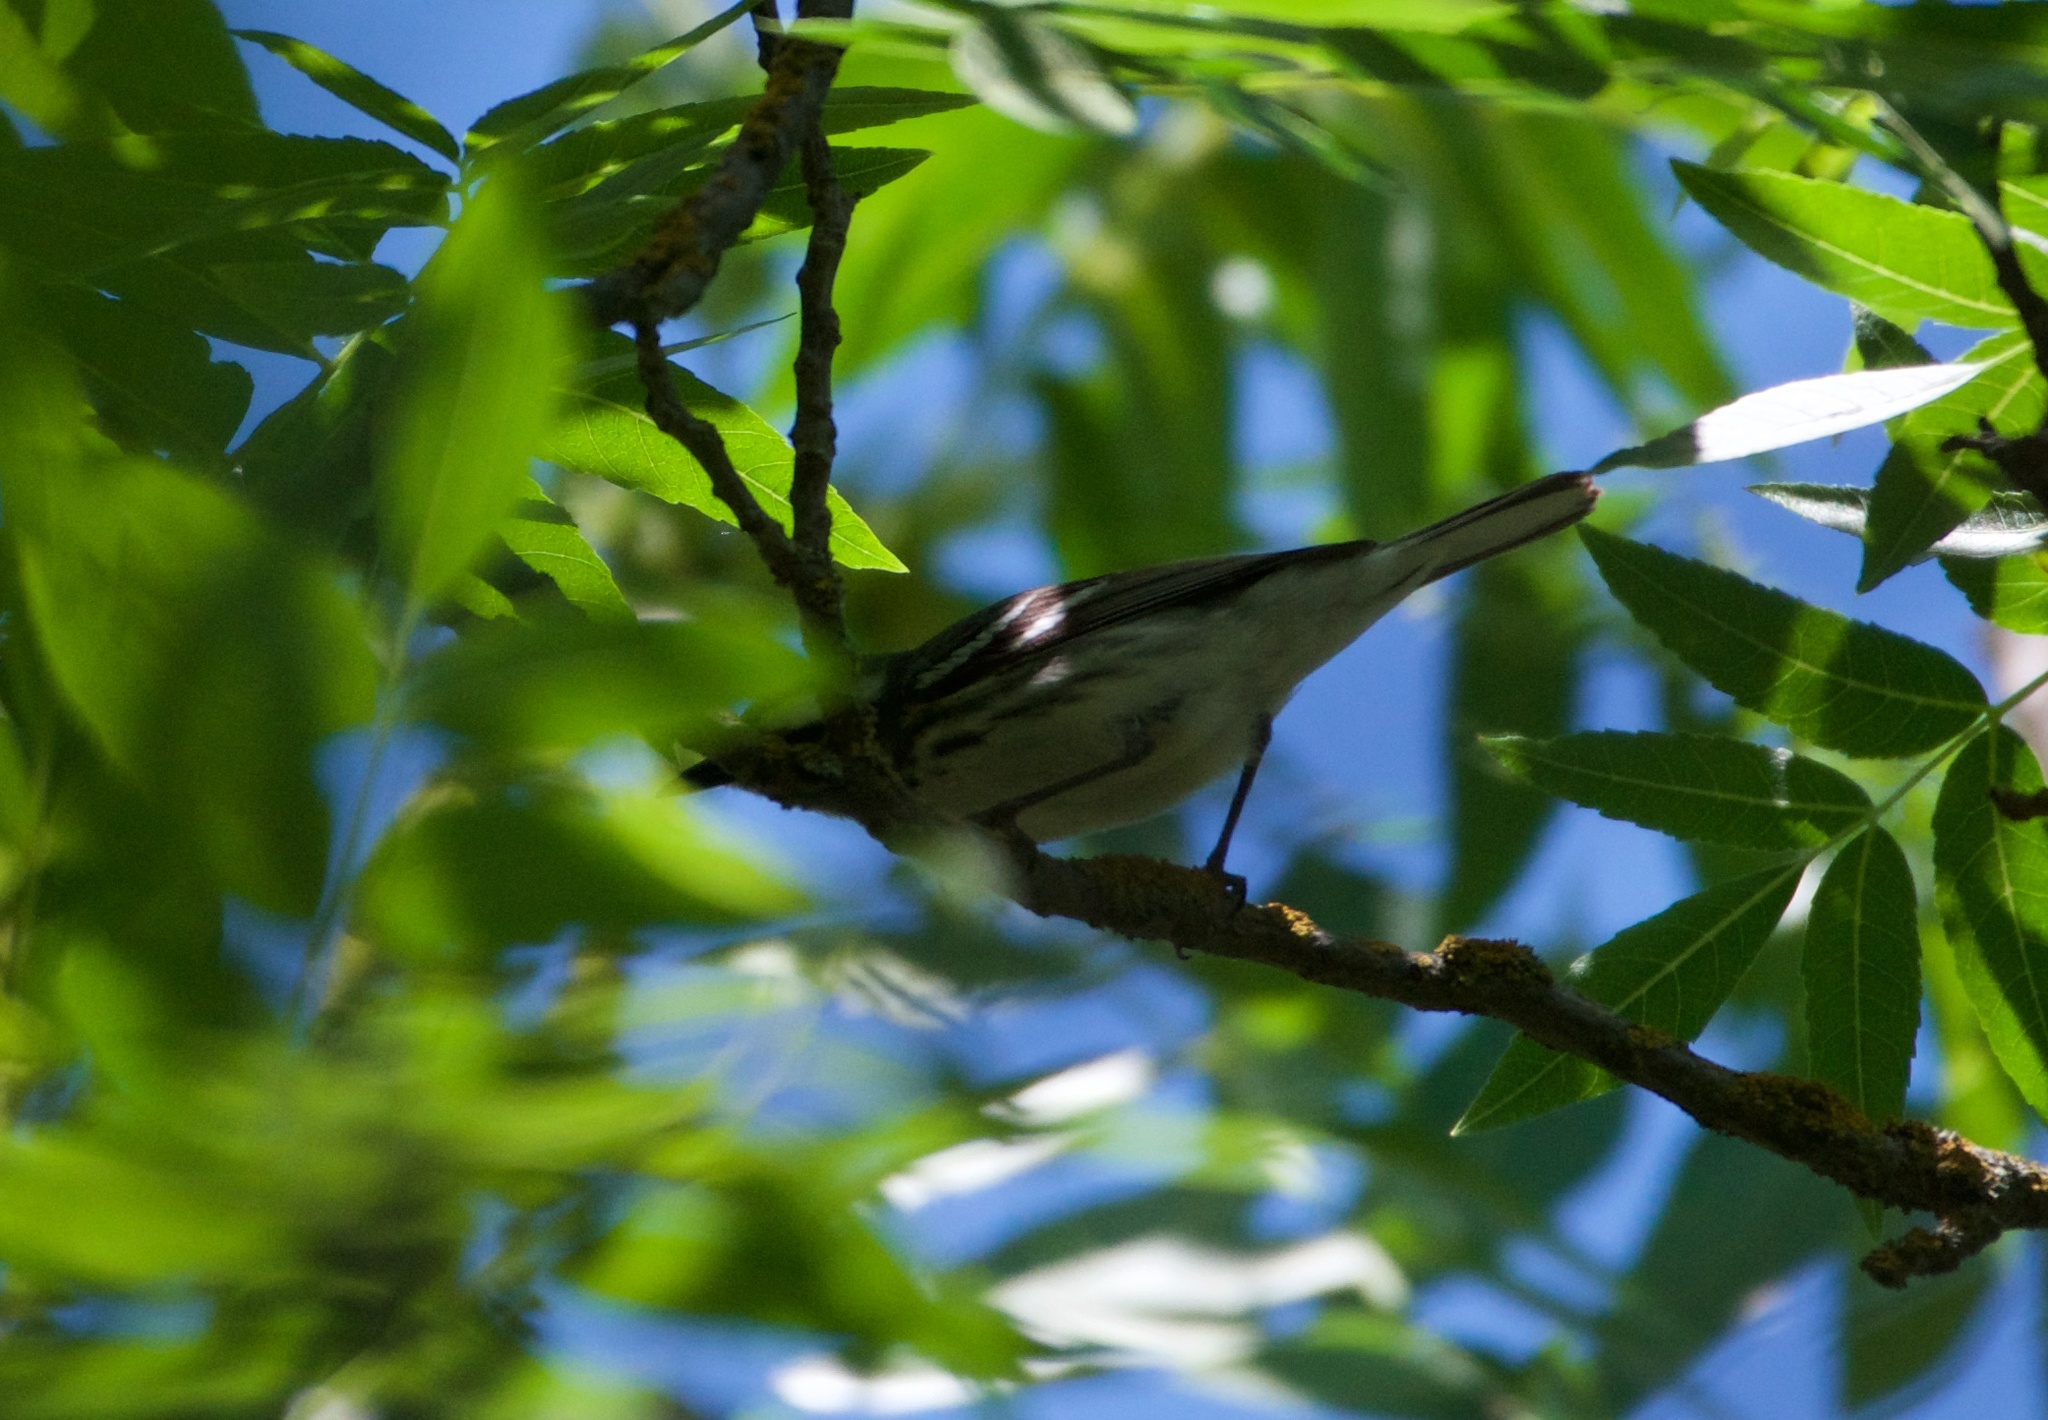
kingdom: Animalia
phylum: Chordata
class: Aves
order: Passeriformes
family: Parulidae
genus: Setophaga
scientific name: Setophaga nigrescens
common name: Black-throated gray warbler
